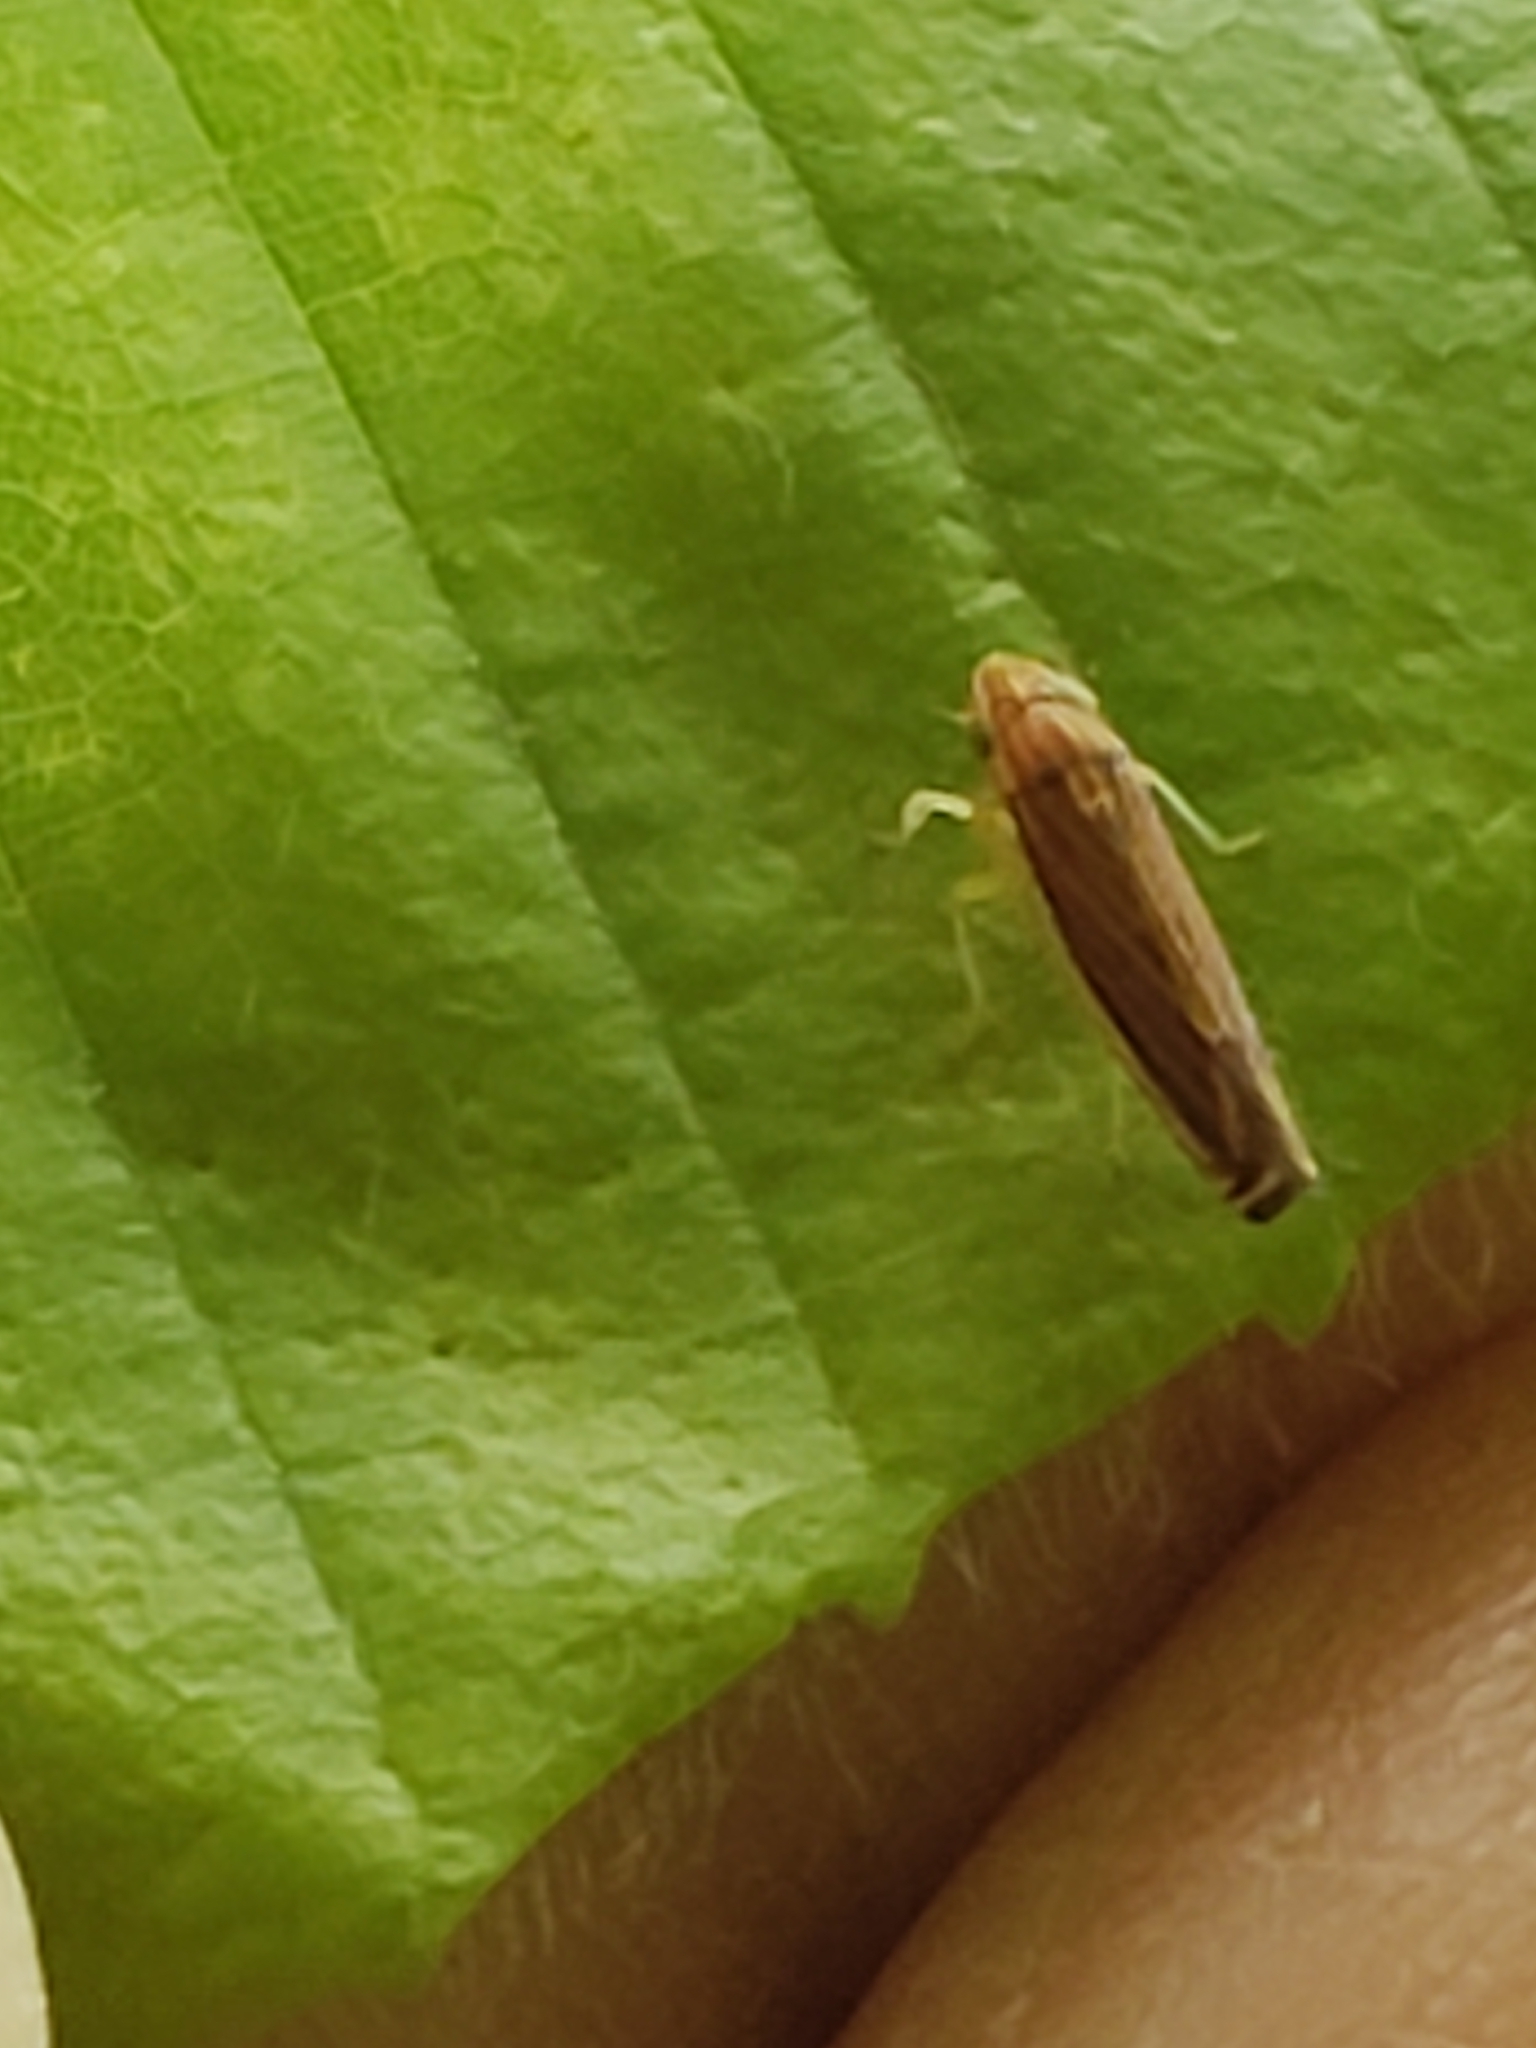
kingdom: Animalia
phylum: Arthropoda
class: Insecta
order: Hemiptera
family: Cicadellidae
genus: Sibovia
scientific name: Sibovia occatoria
